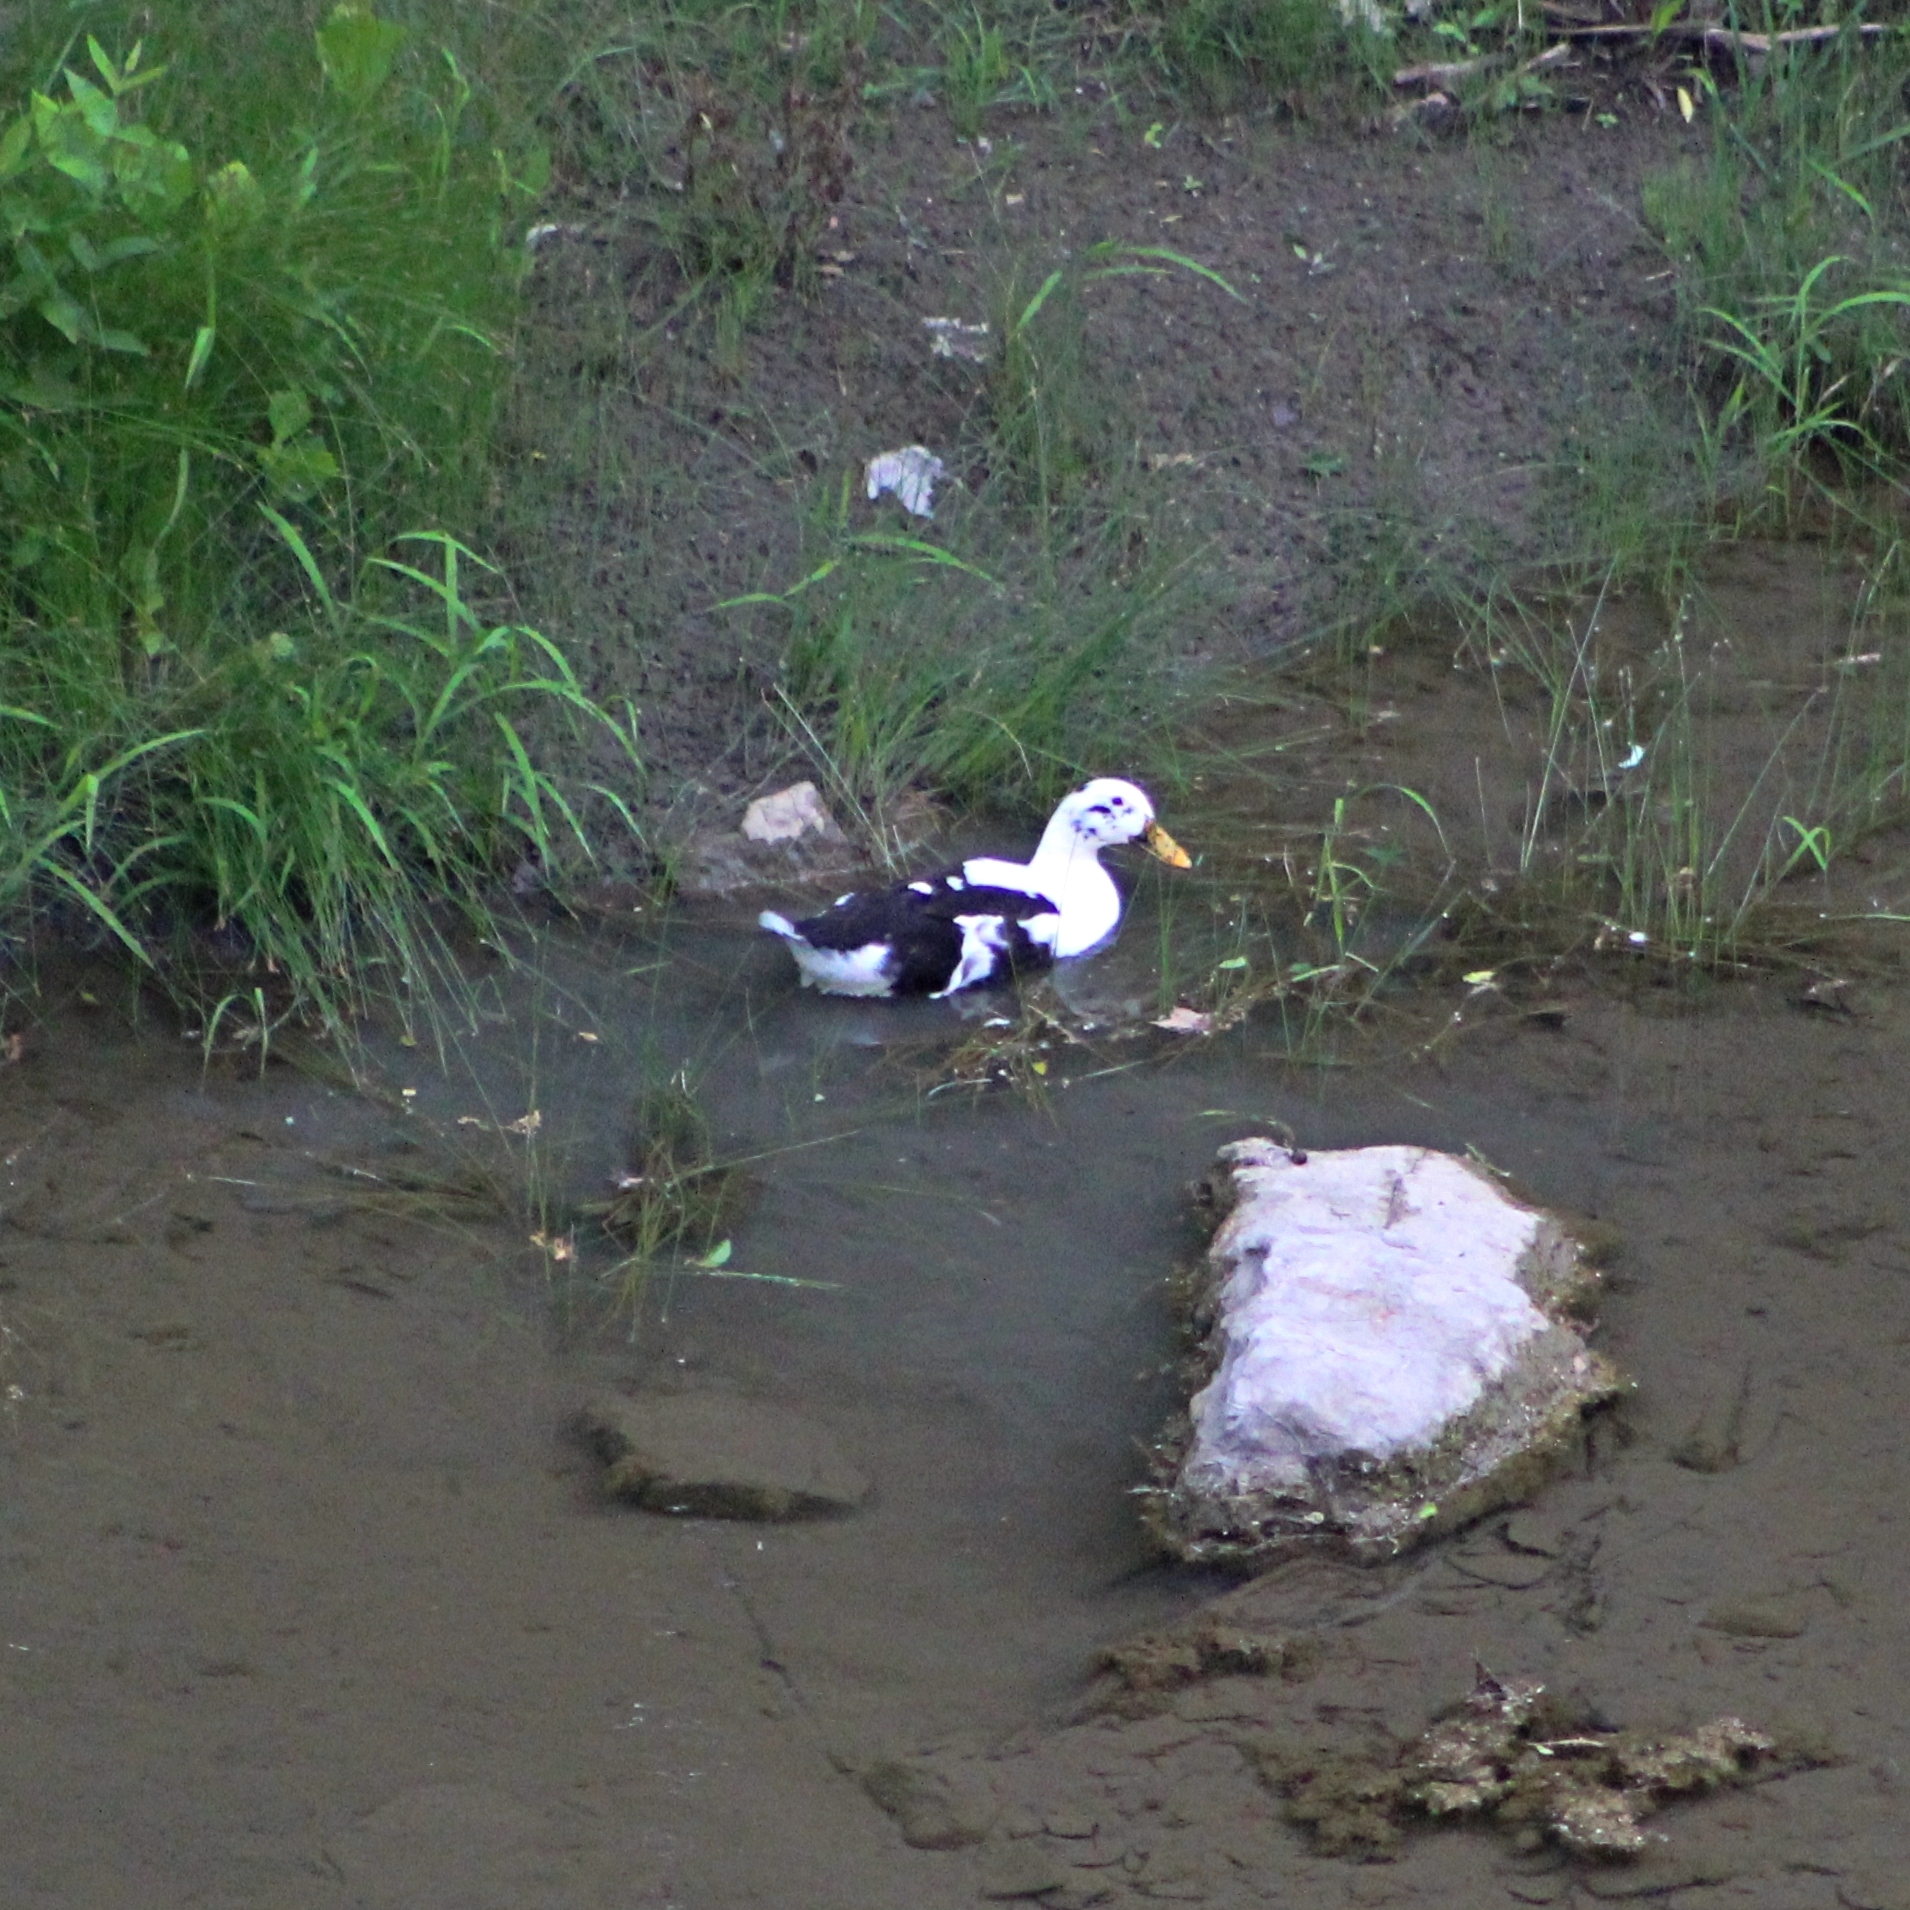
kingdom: Animalia
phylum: Chordata
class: Aves
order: Anseriformes
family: Anatidae
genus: Anas
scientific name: Anas platyrhynchos
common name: Mallard
